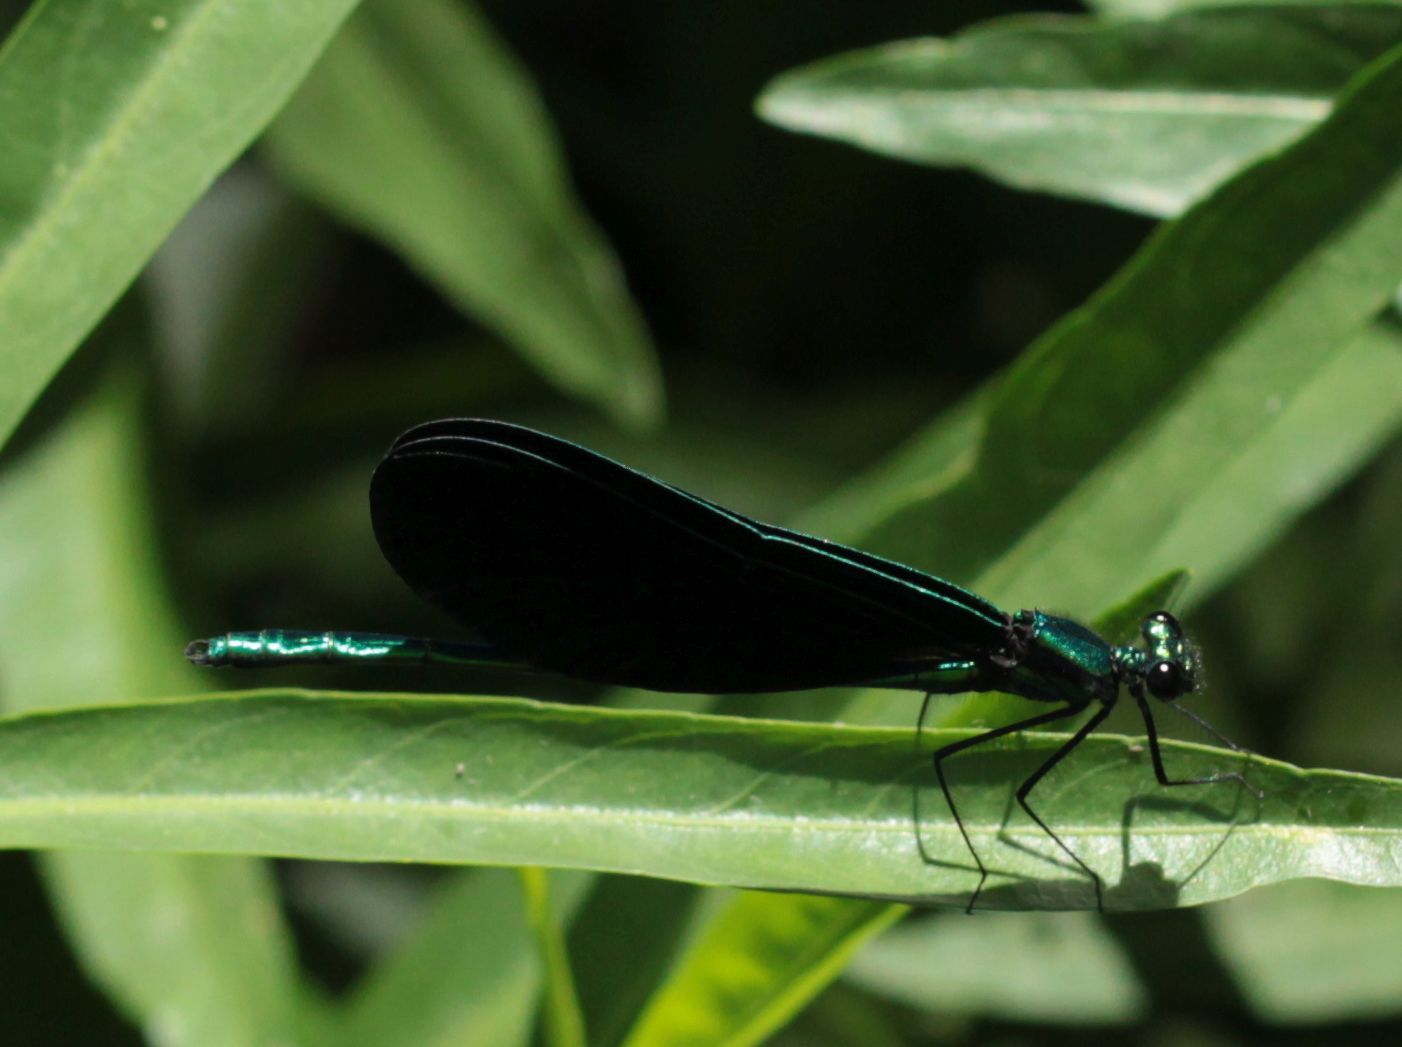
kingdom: Animalia
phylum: Arthropoda
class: Insecta
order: Odonata
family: Calopterygidae
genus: Calopteryx
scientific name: Calopteryx maculata
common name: Ebony jewelwing
